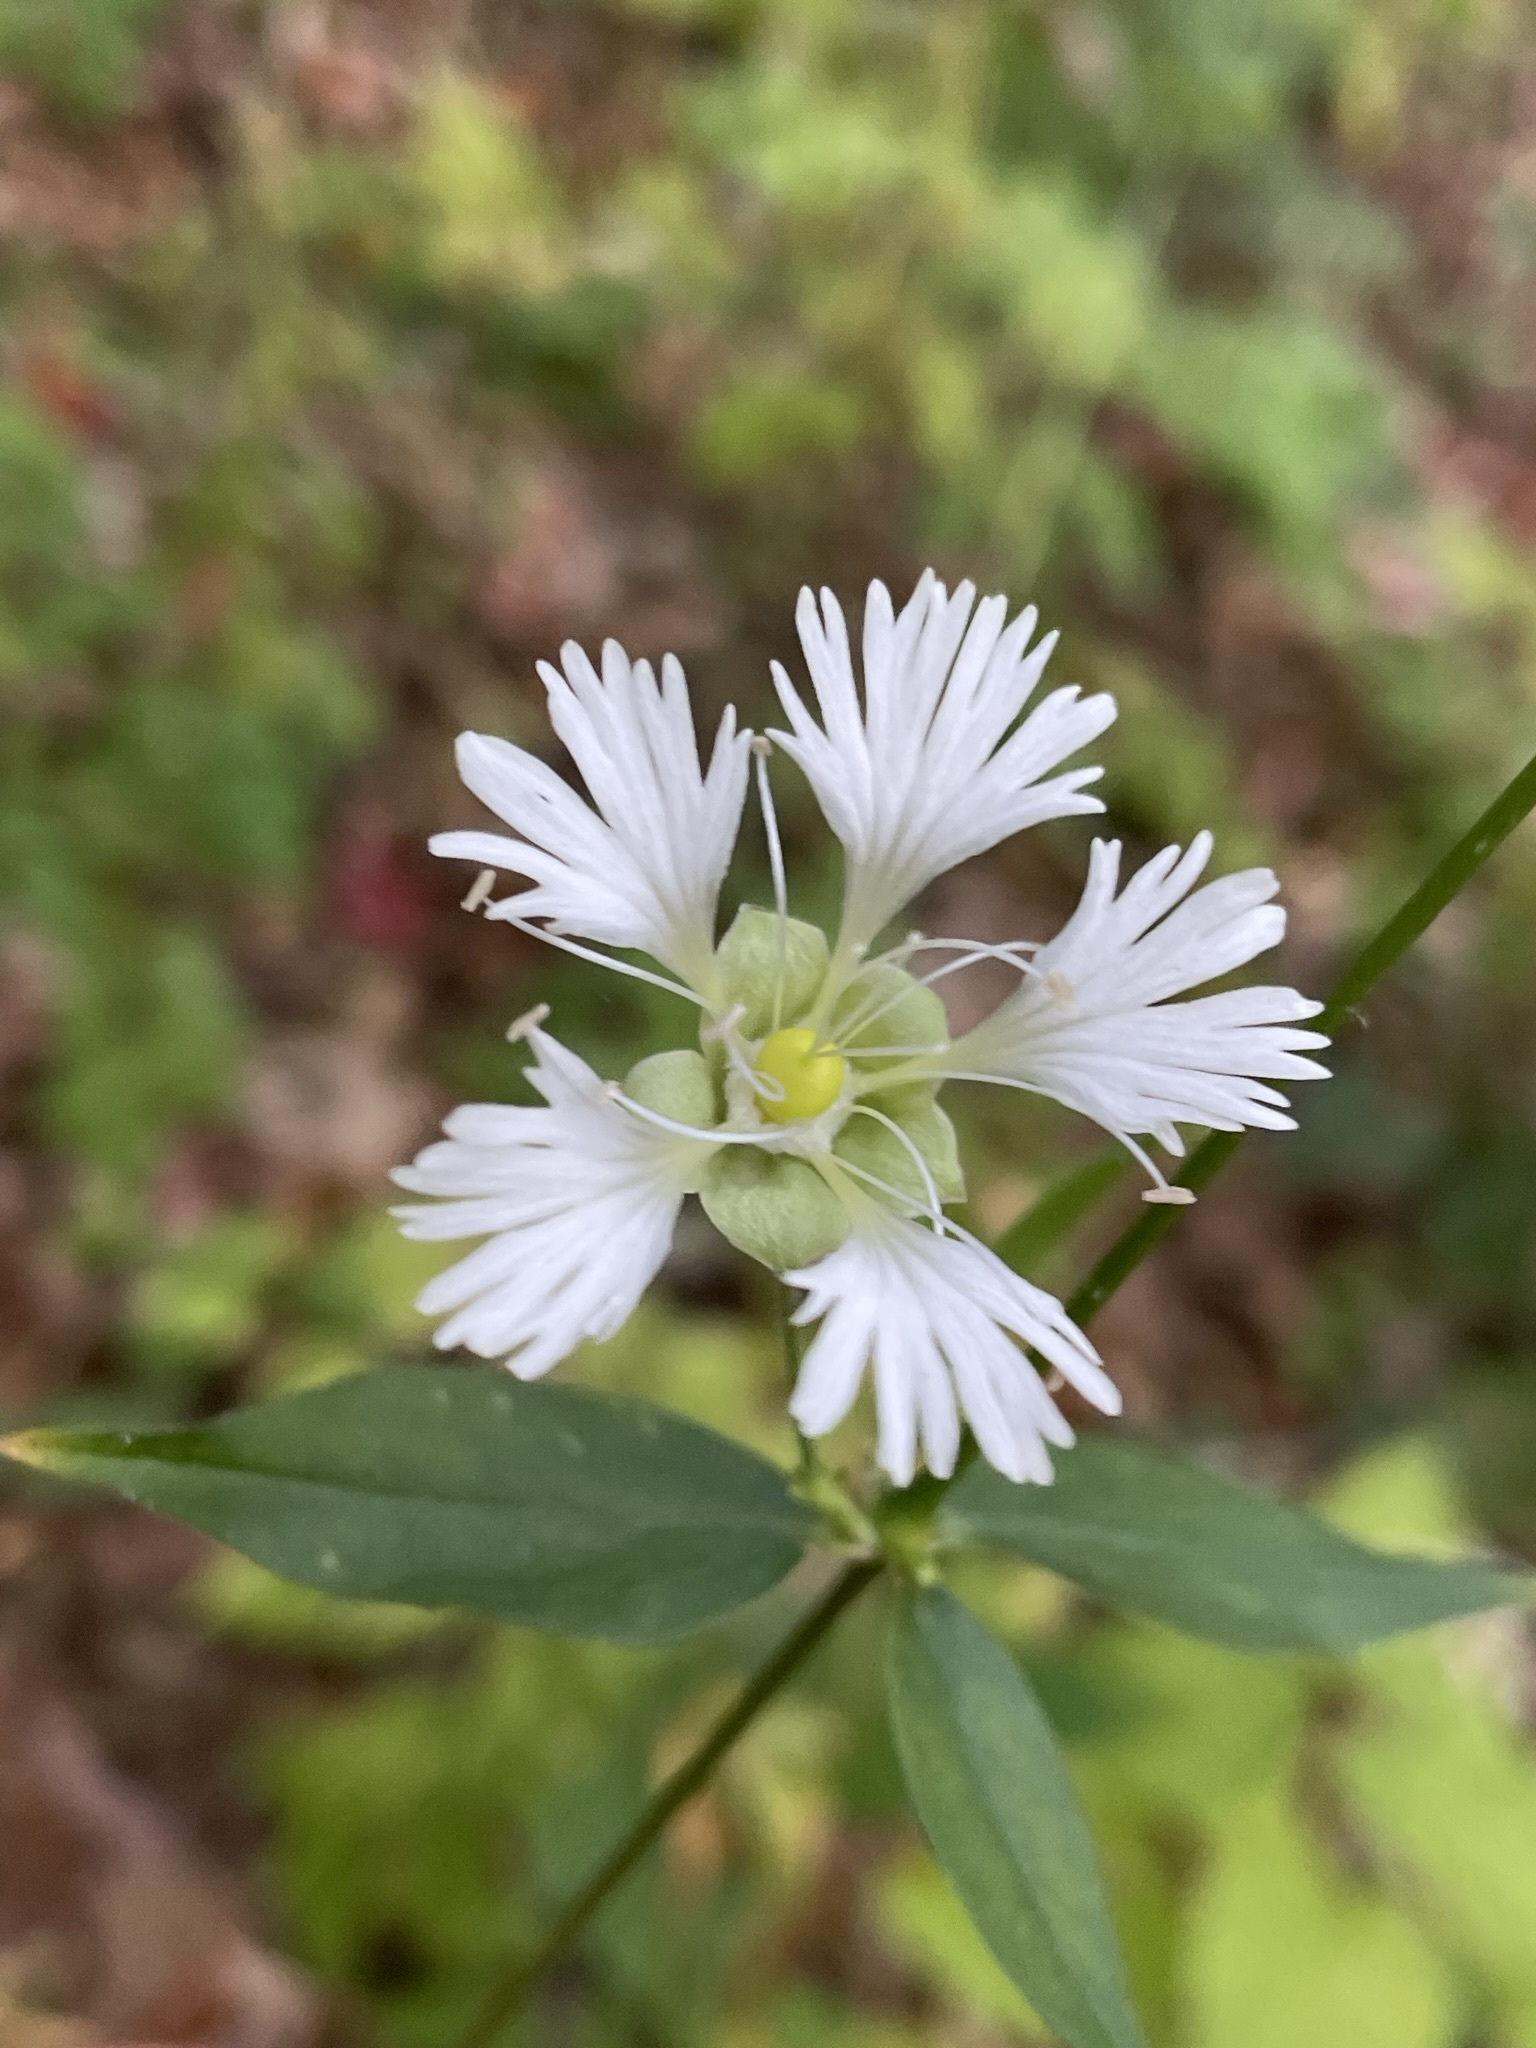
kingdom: Plantae
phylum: Tracheophyta
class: Magnoliopsida
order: Caryophyllales
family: Caryophyllaceae
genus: Silene
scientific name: Silene stellata
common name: Starry campion
